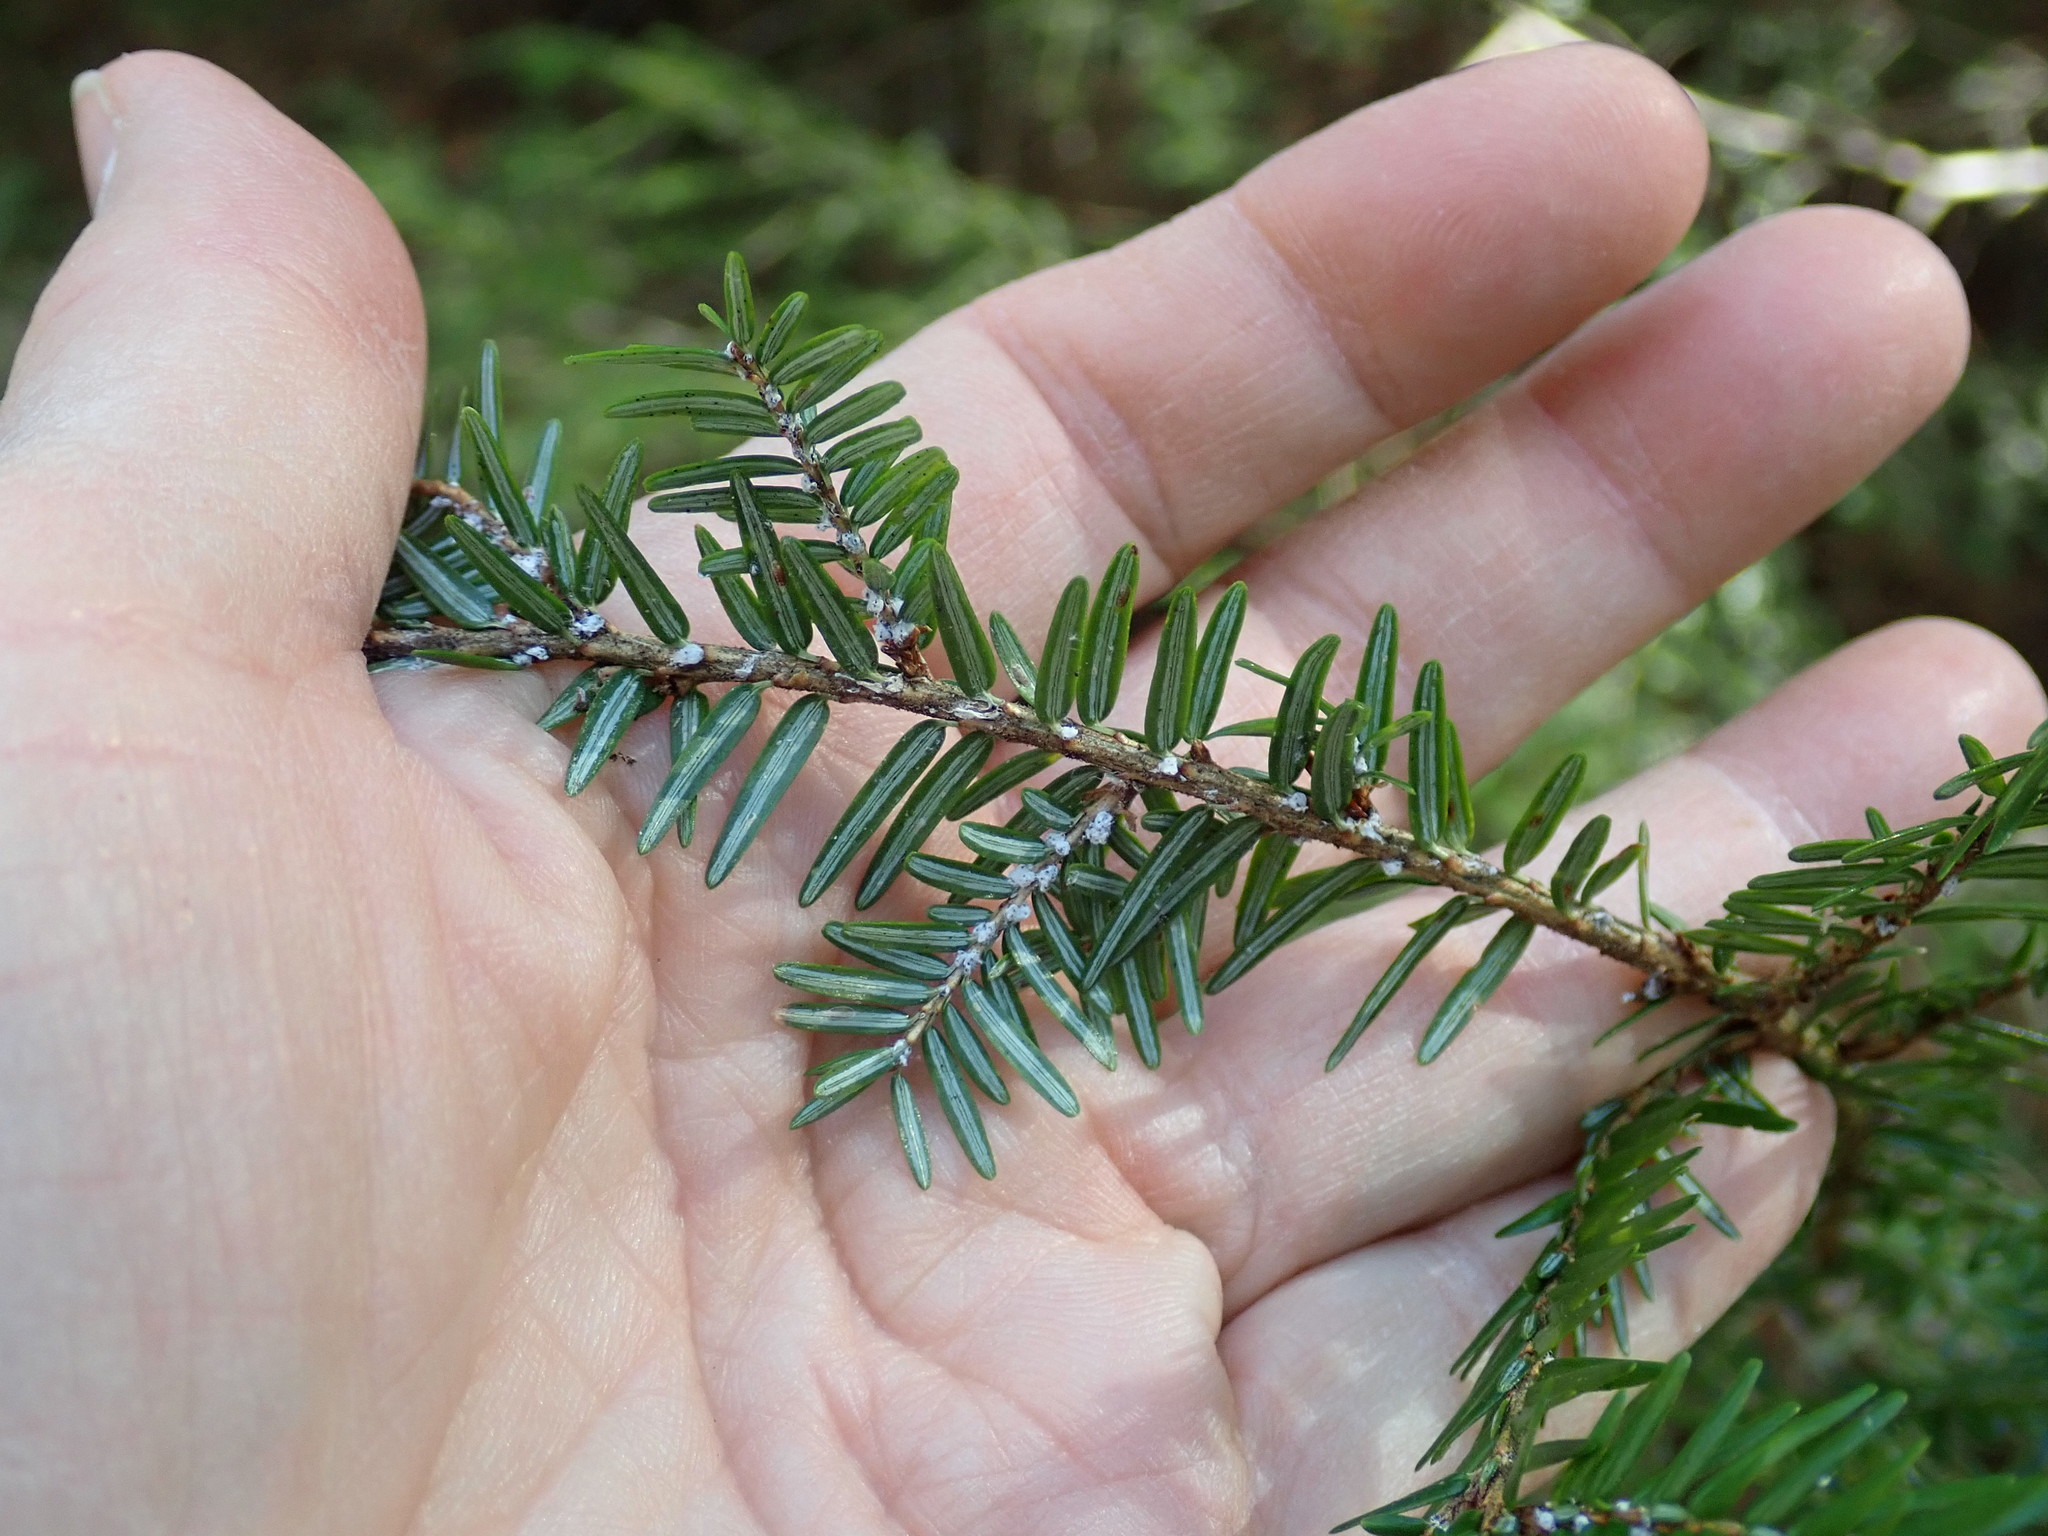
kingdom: Animalia
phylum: Arthropoda
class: Insecta
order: Hemiptera
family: Adelgidae
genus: Adelges
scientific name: Adelges tsugae
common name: Hemlock woolly adelgid
